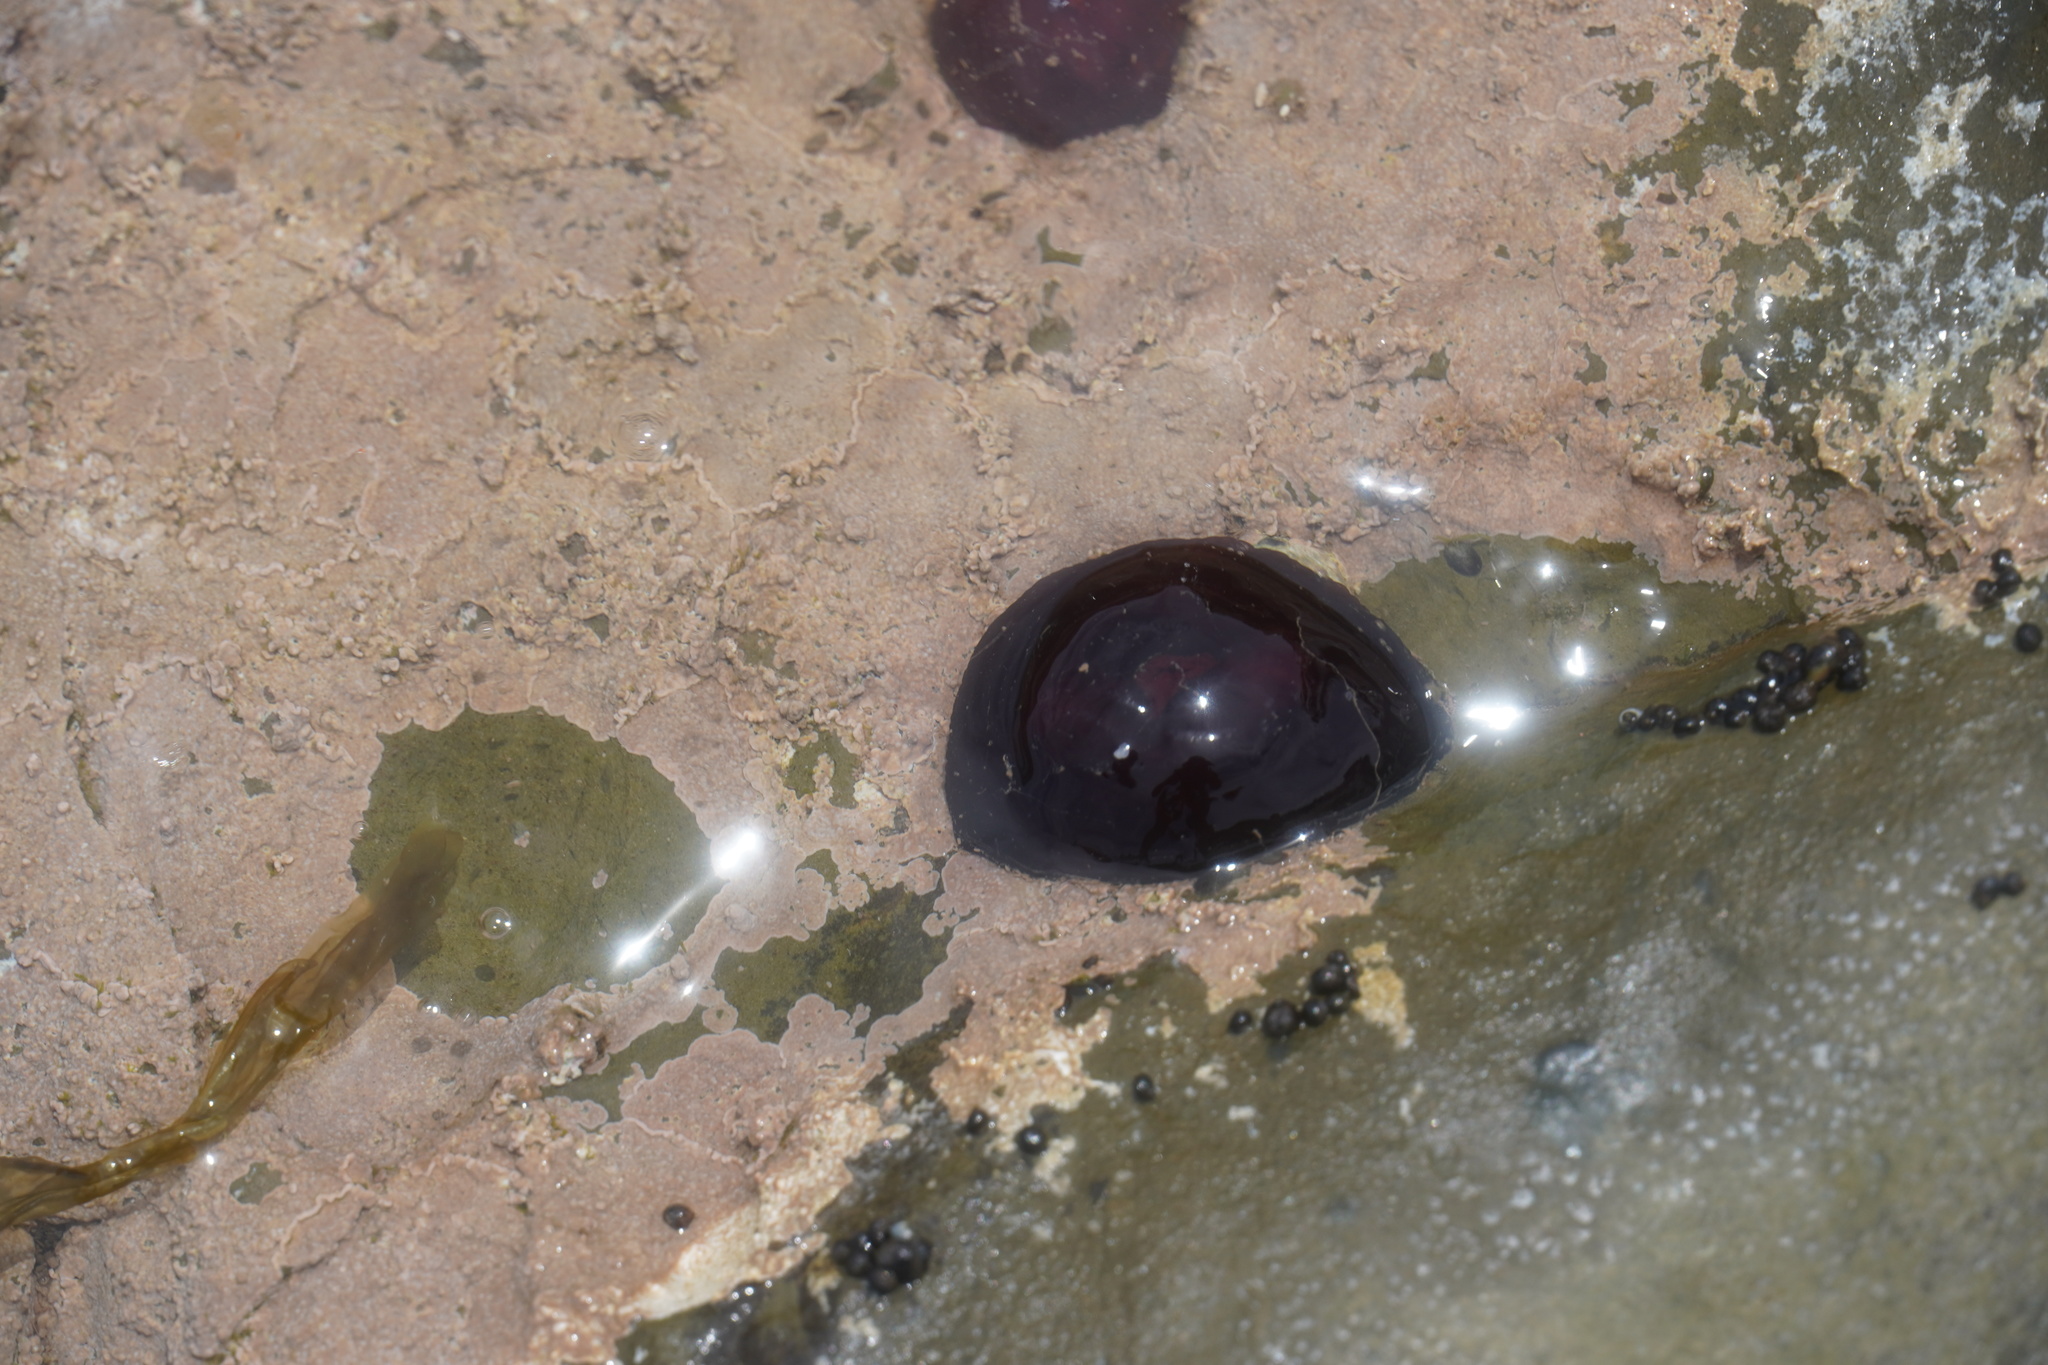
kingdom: Animalia
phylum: Cnidaria
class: Anthozoa
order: Actiniaria
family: Actiniidae
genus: Actinia
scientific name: Actinia ebhayiensis
